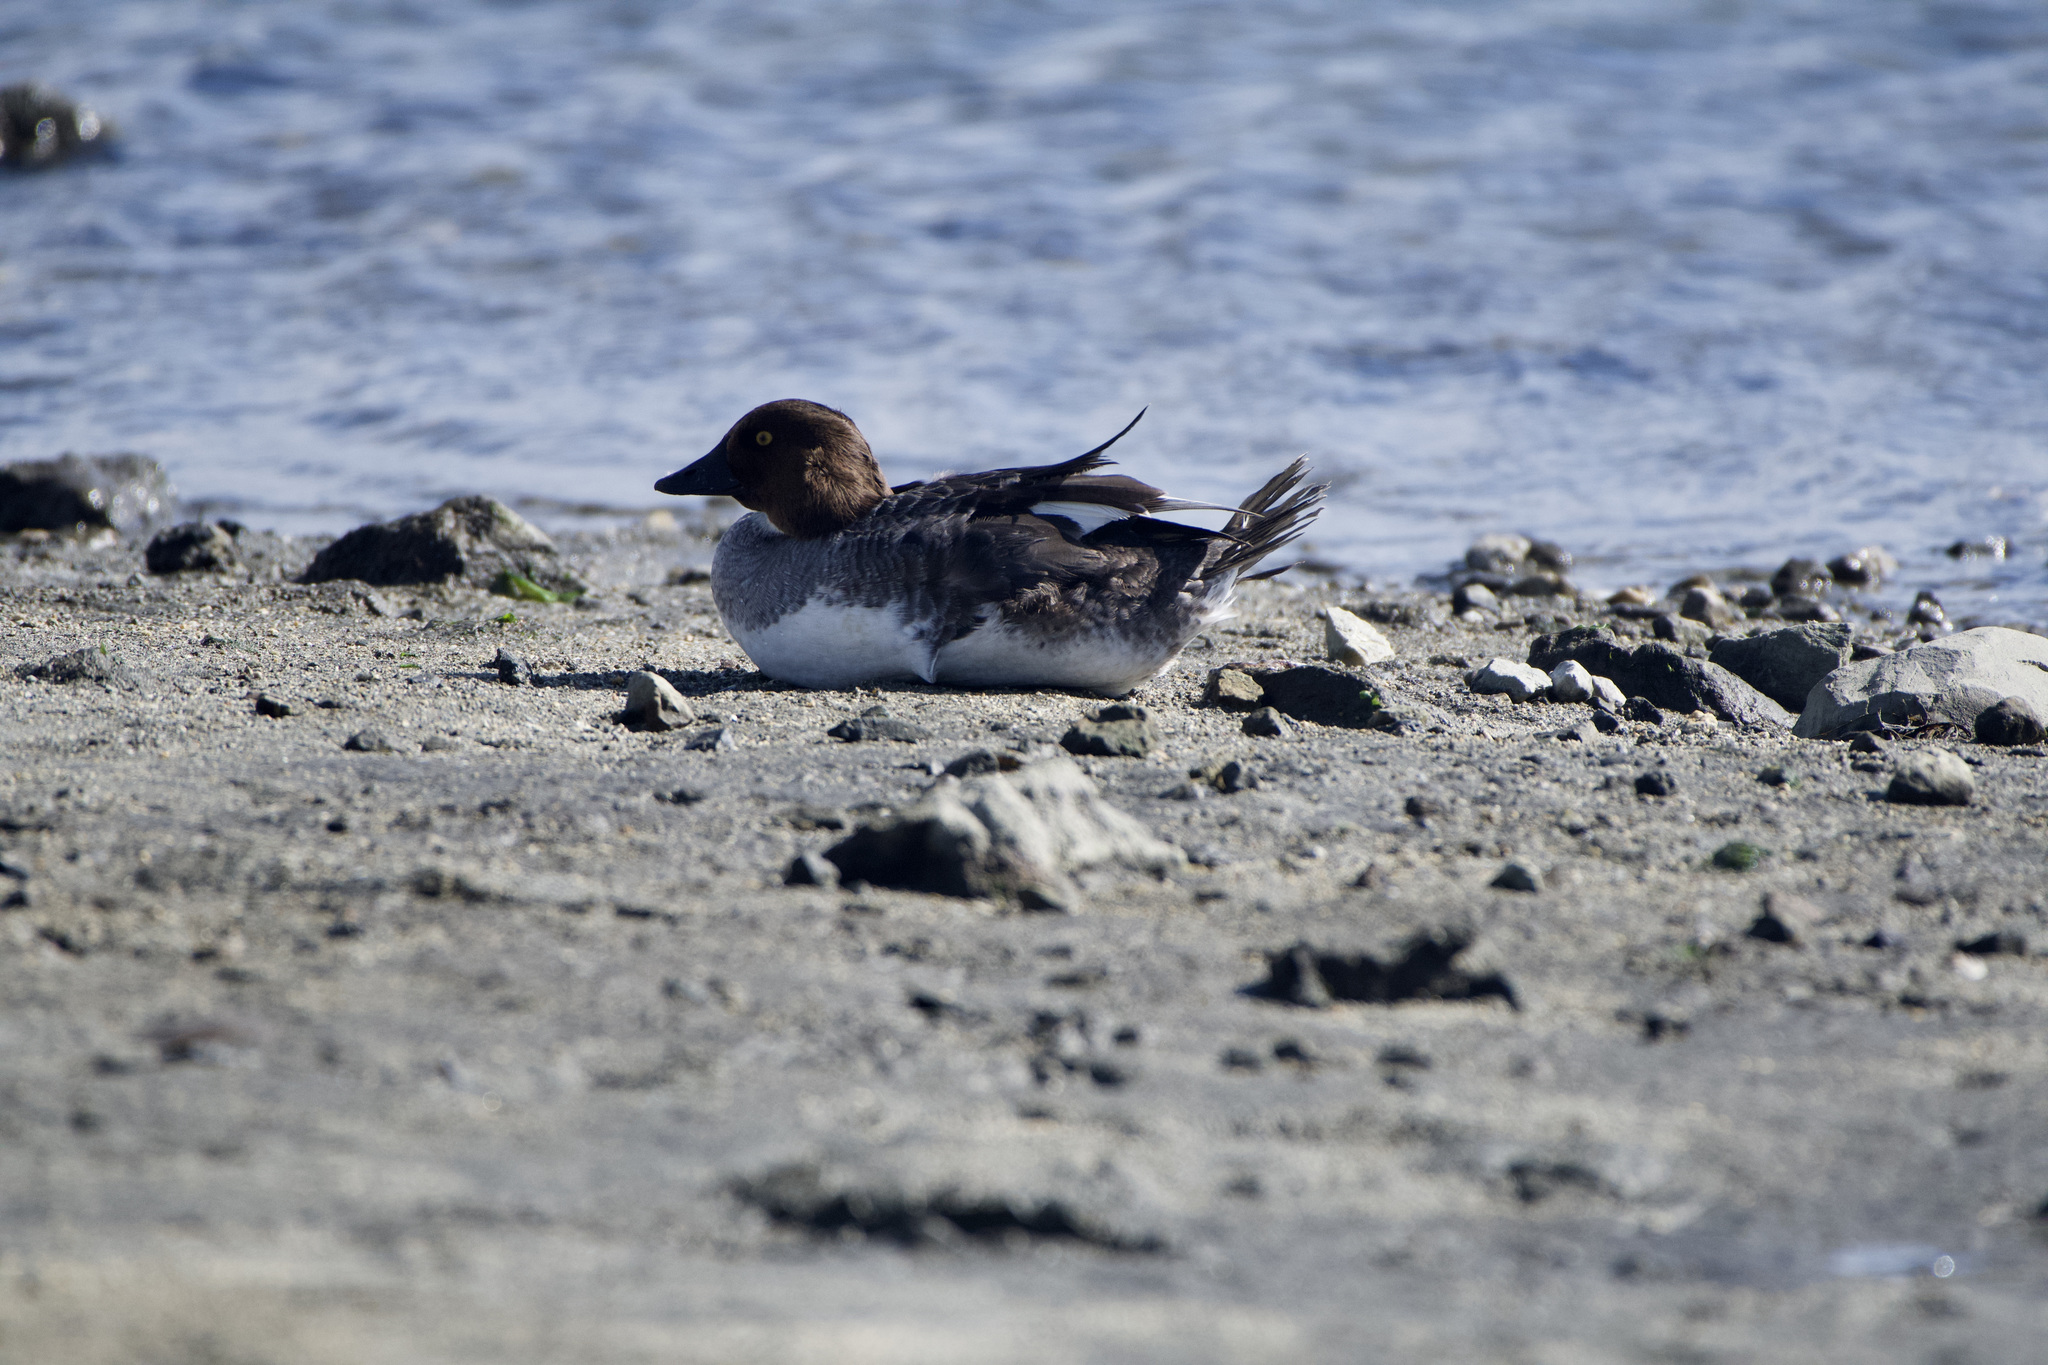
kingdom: Animalia
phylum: Chordata
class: Aves
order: Anseriformes
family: Anatidae
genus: Bucephala
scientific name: Bucephala clangula
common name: Common goldeneye
